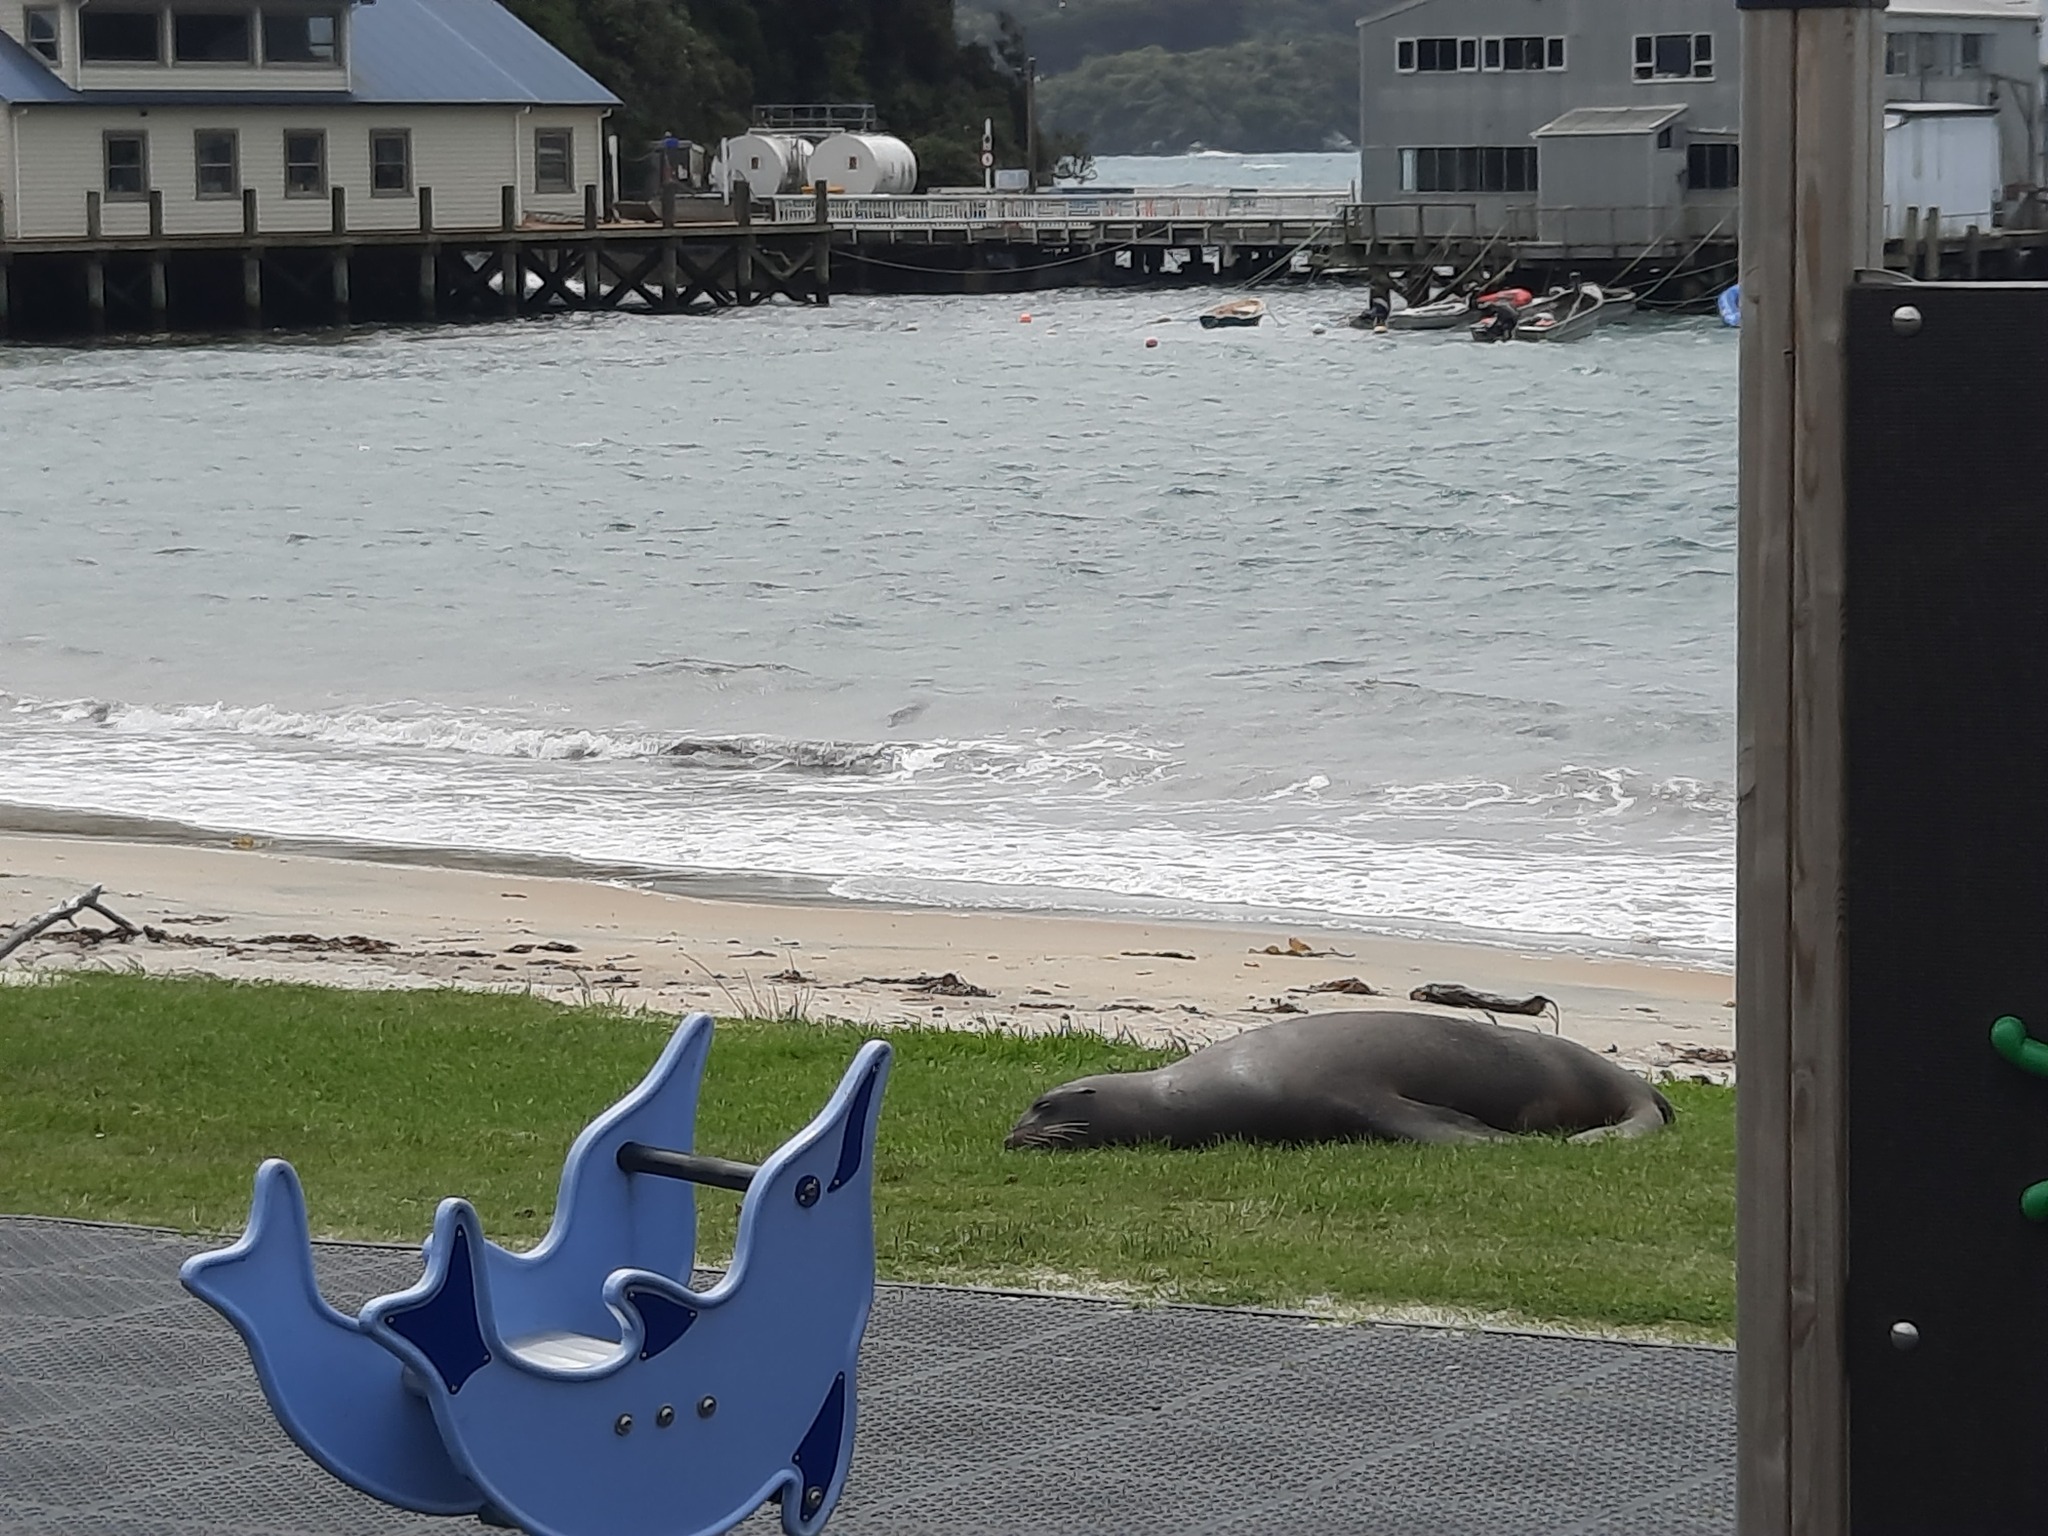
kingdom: Animalia
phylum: Chordata
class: Mammalia
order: Carnivora
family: Otariidae
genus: Phocarctos
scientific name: Phocarctos hookeri
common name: New zealand sea lion
